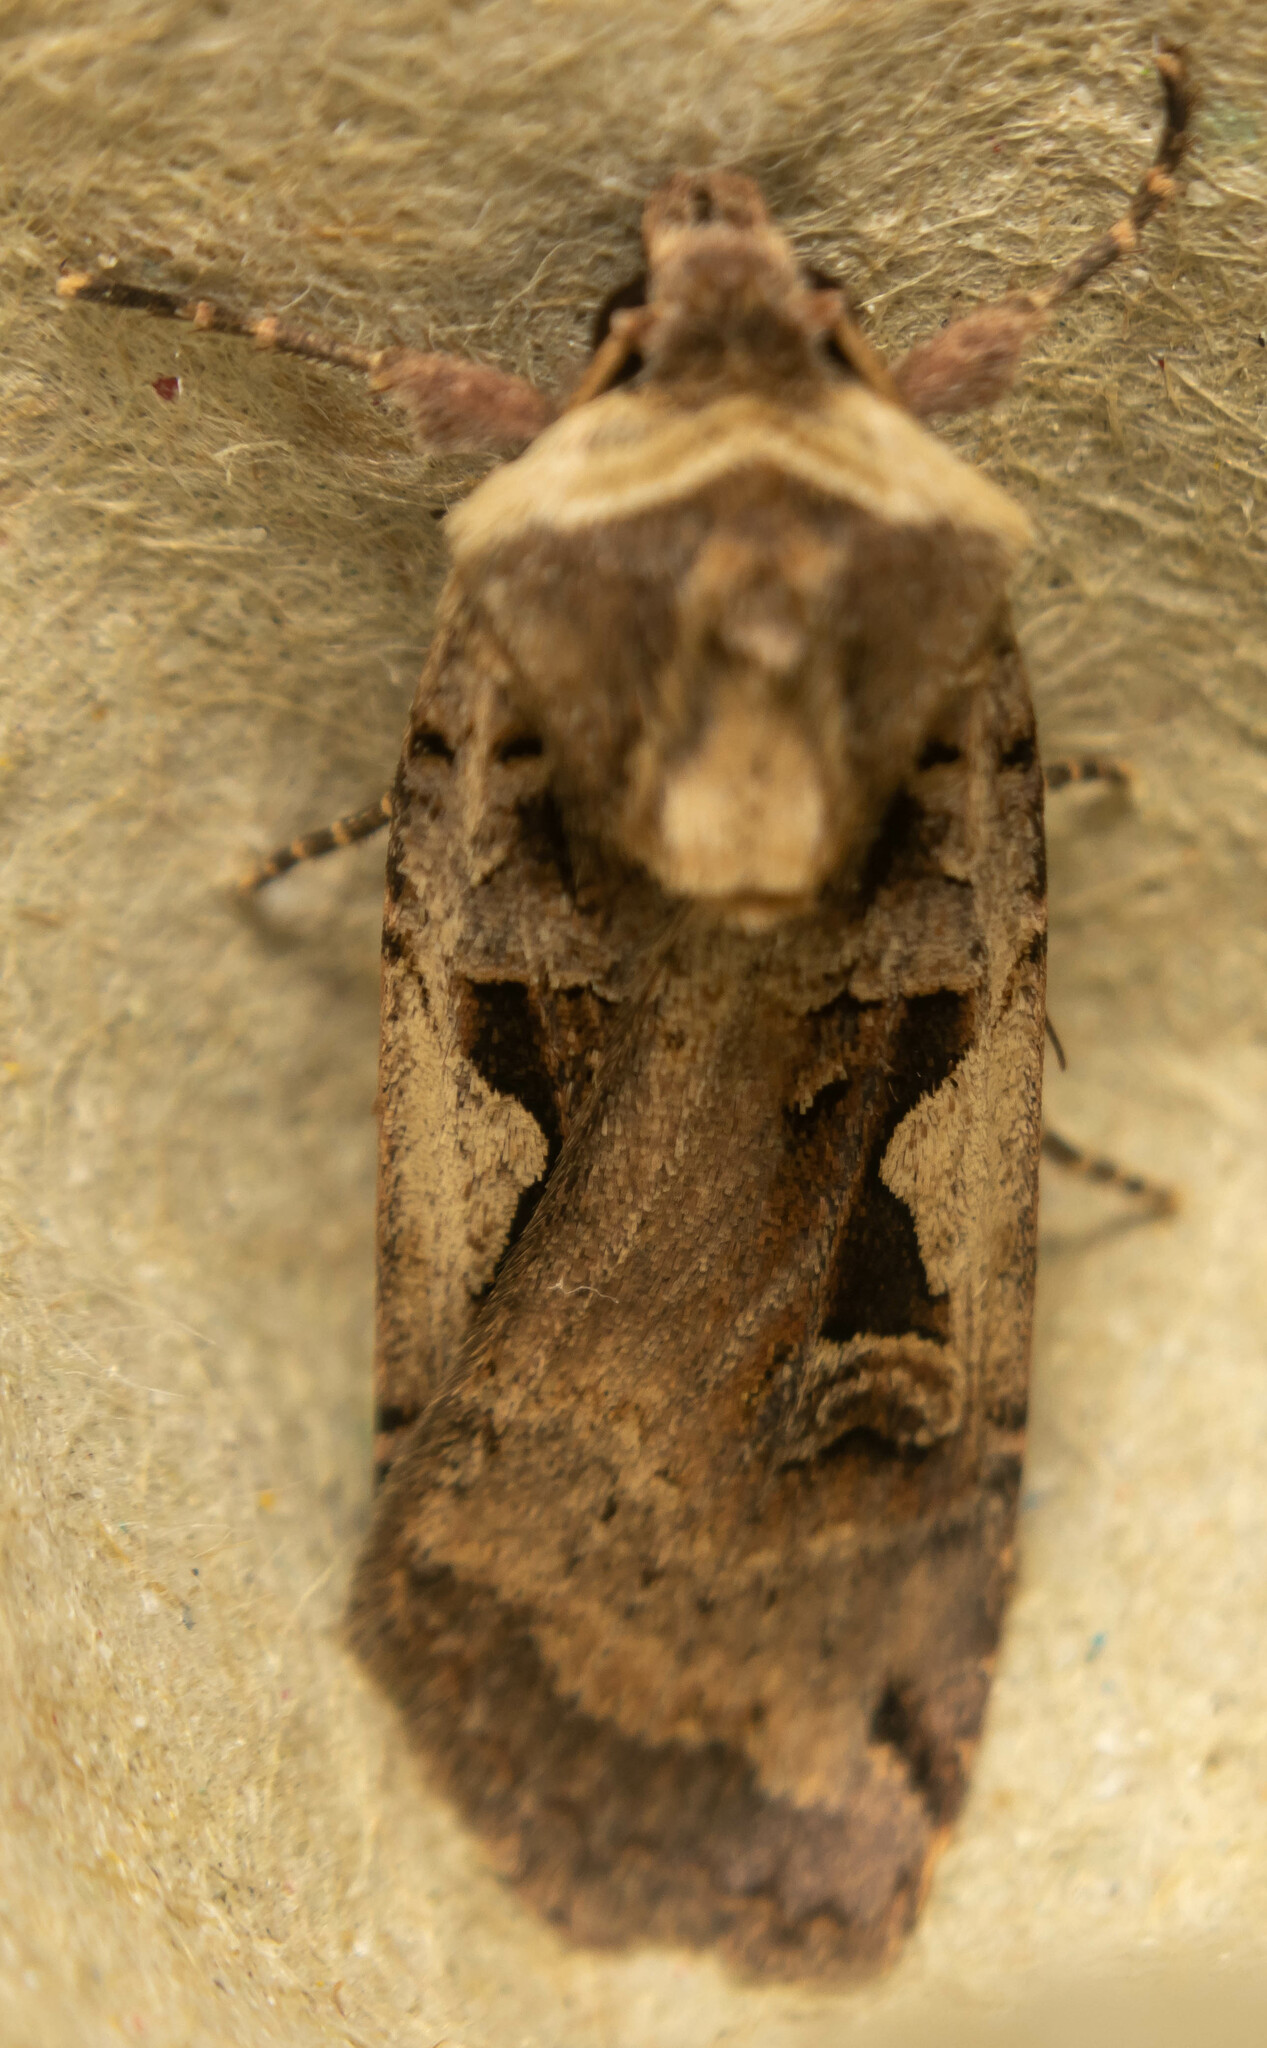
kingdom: Animalia
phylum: Arthropoda
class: Insecta
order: Lepidoptera
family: Noctuidae
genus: Xestia
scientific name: Xestia c-nigrum
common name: Setaceous hebrew character
